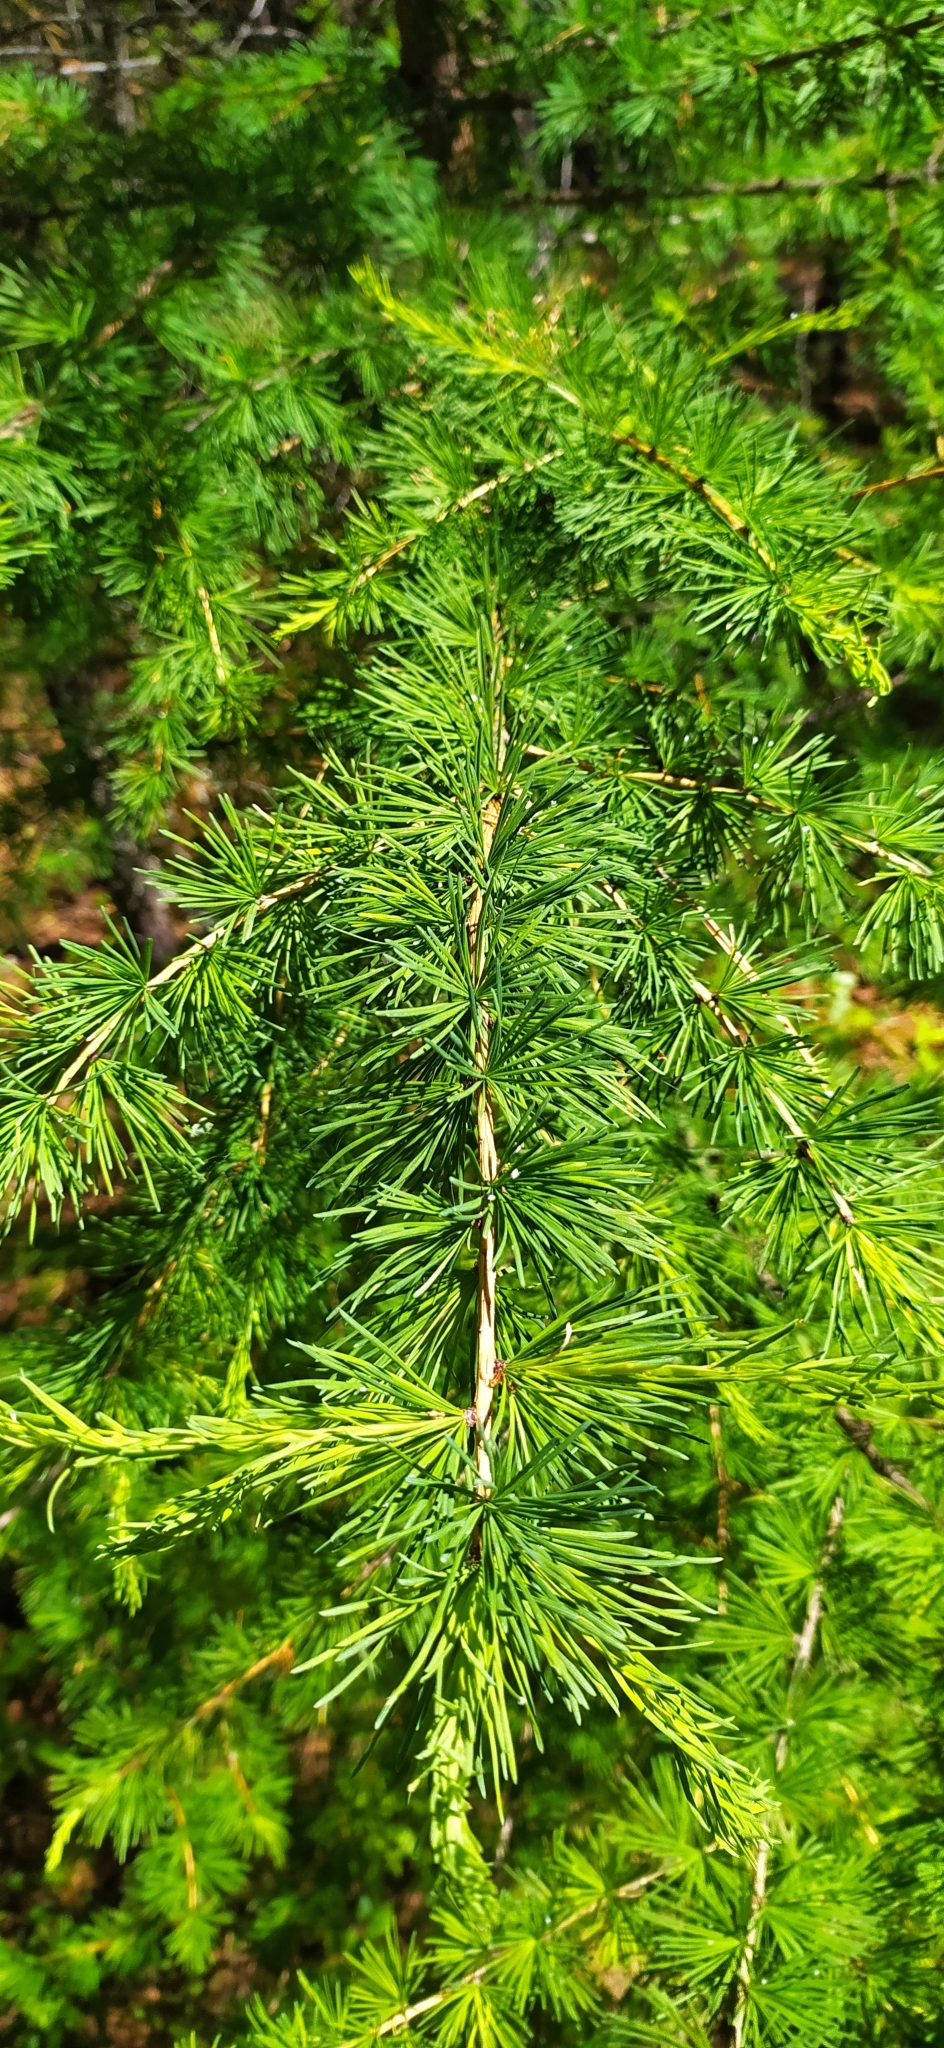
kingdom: Plantae
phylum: Tracheophyta
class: Pinopsida
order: Pinales
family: Pinaceae
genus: Larix
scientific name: Larix sibirica
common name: Siberian larch
